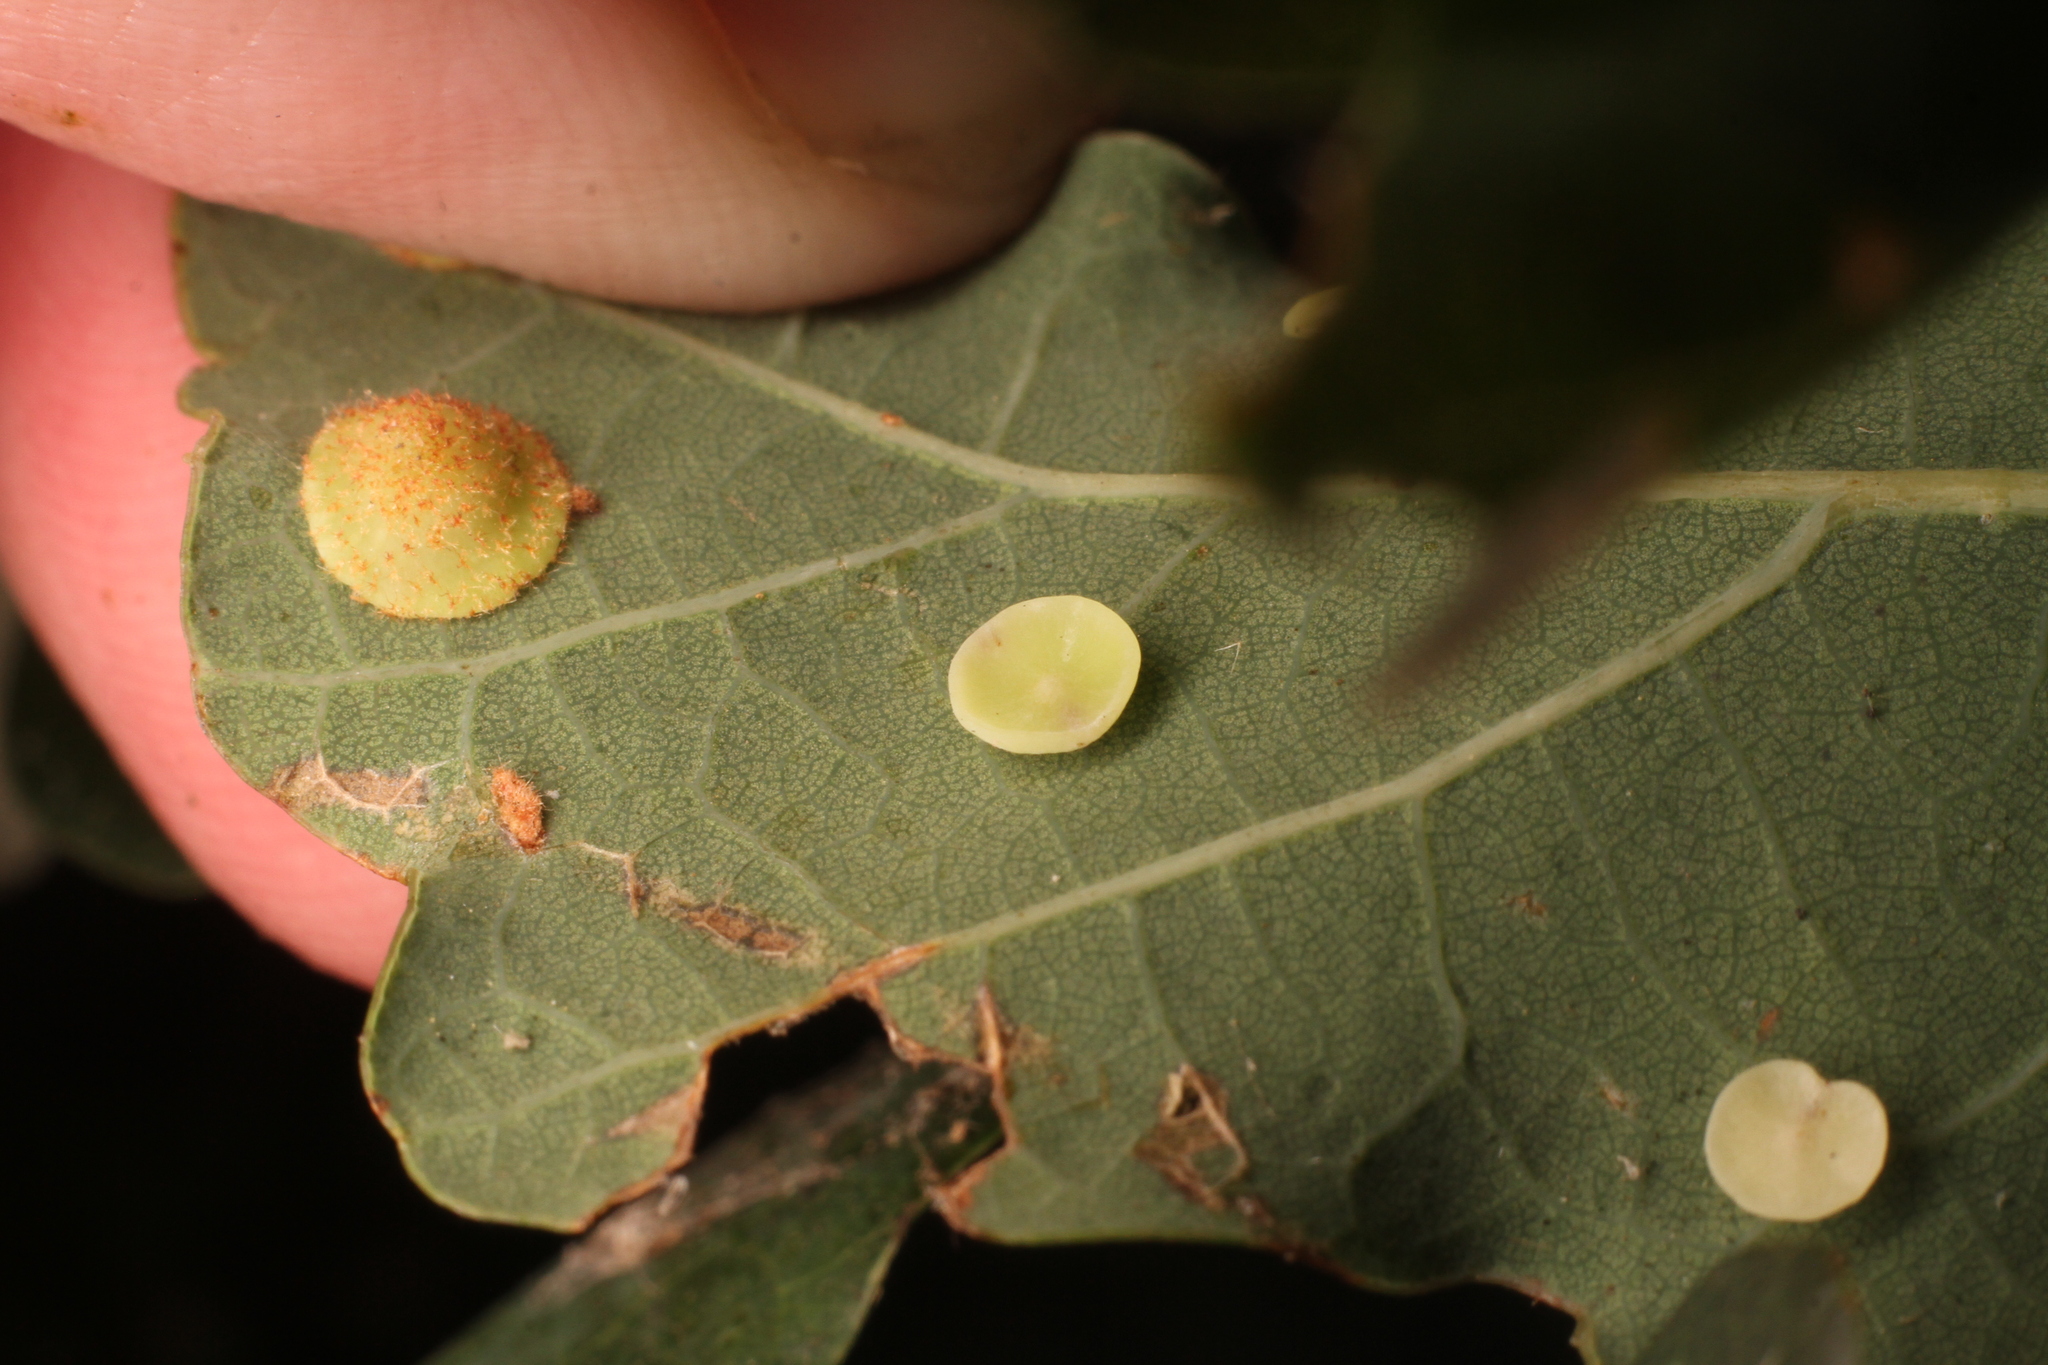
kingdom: Animalia
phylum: Arthropoda
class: Insecta
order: Hymenoptera
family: Cynipidae
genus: Neuroterus
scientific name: Neuroterus albipes
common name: Smooth spangle gall
